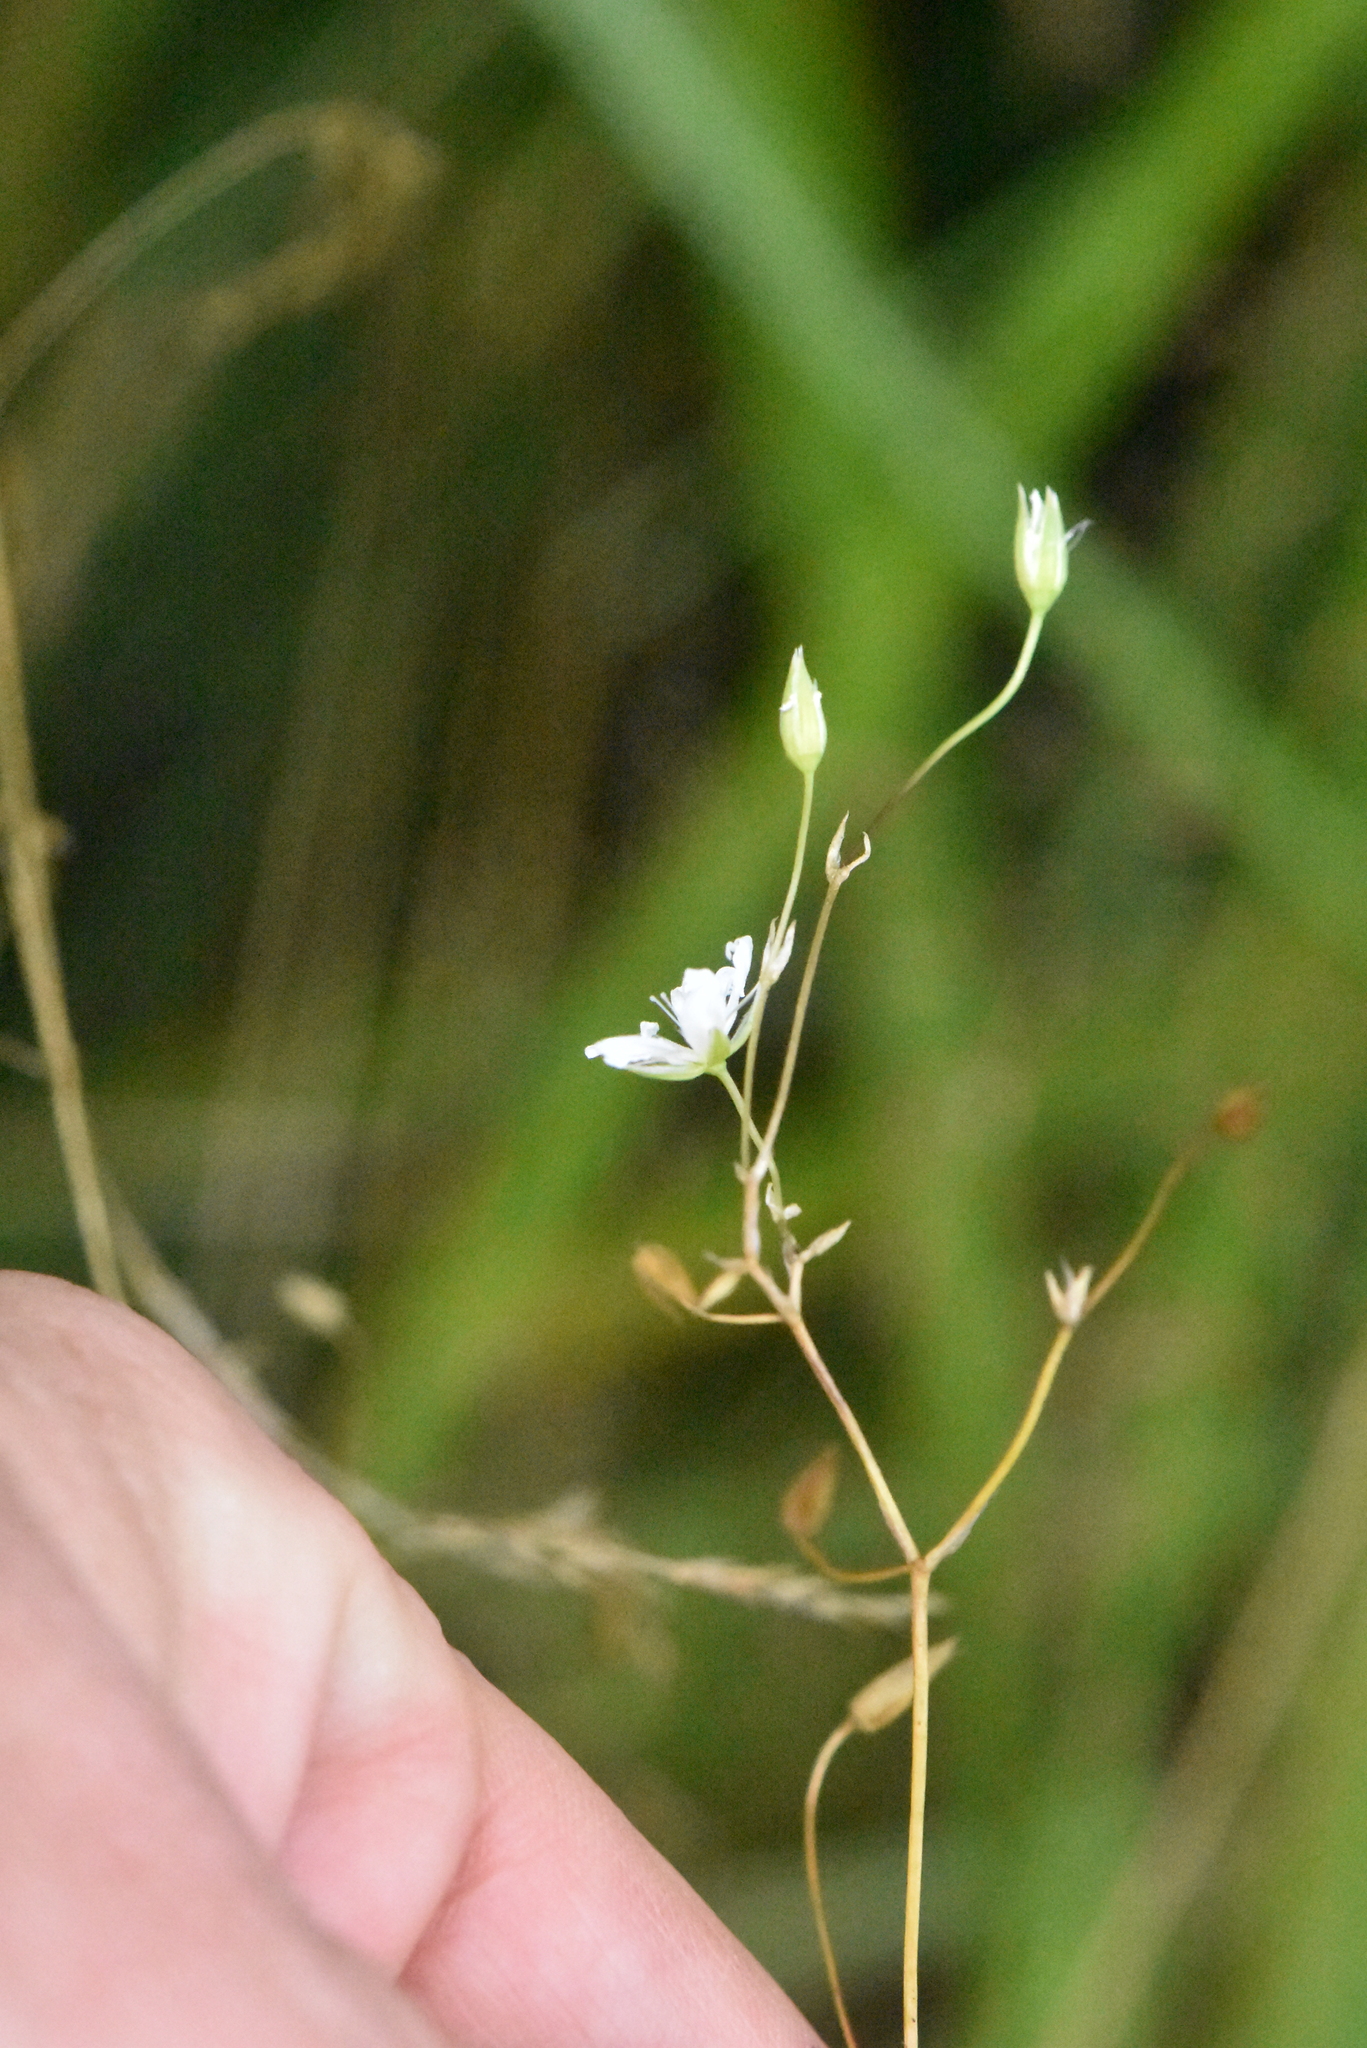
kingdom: Plantae
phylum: Tracheophyta
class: Magnoliopsida
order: Caryophyllales
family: Caryophyllaceae
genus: Stellaria
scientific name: Stellaria graminea
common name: Grass-like starwort
